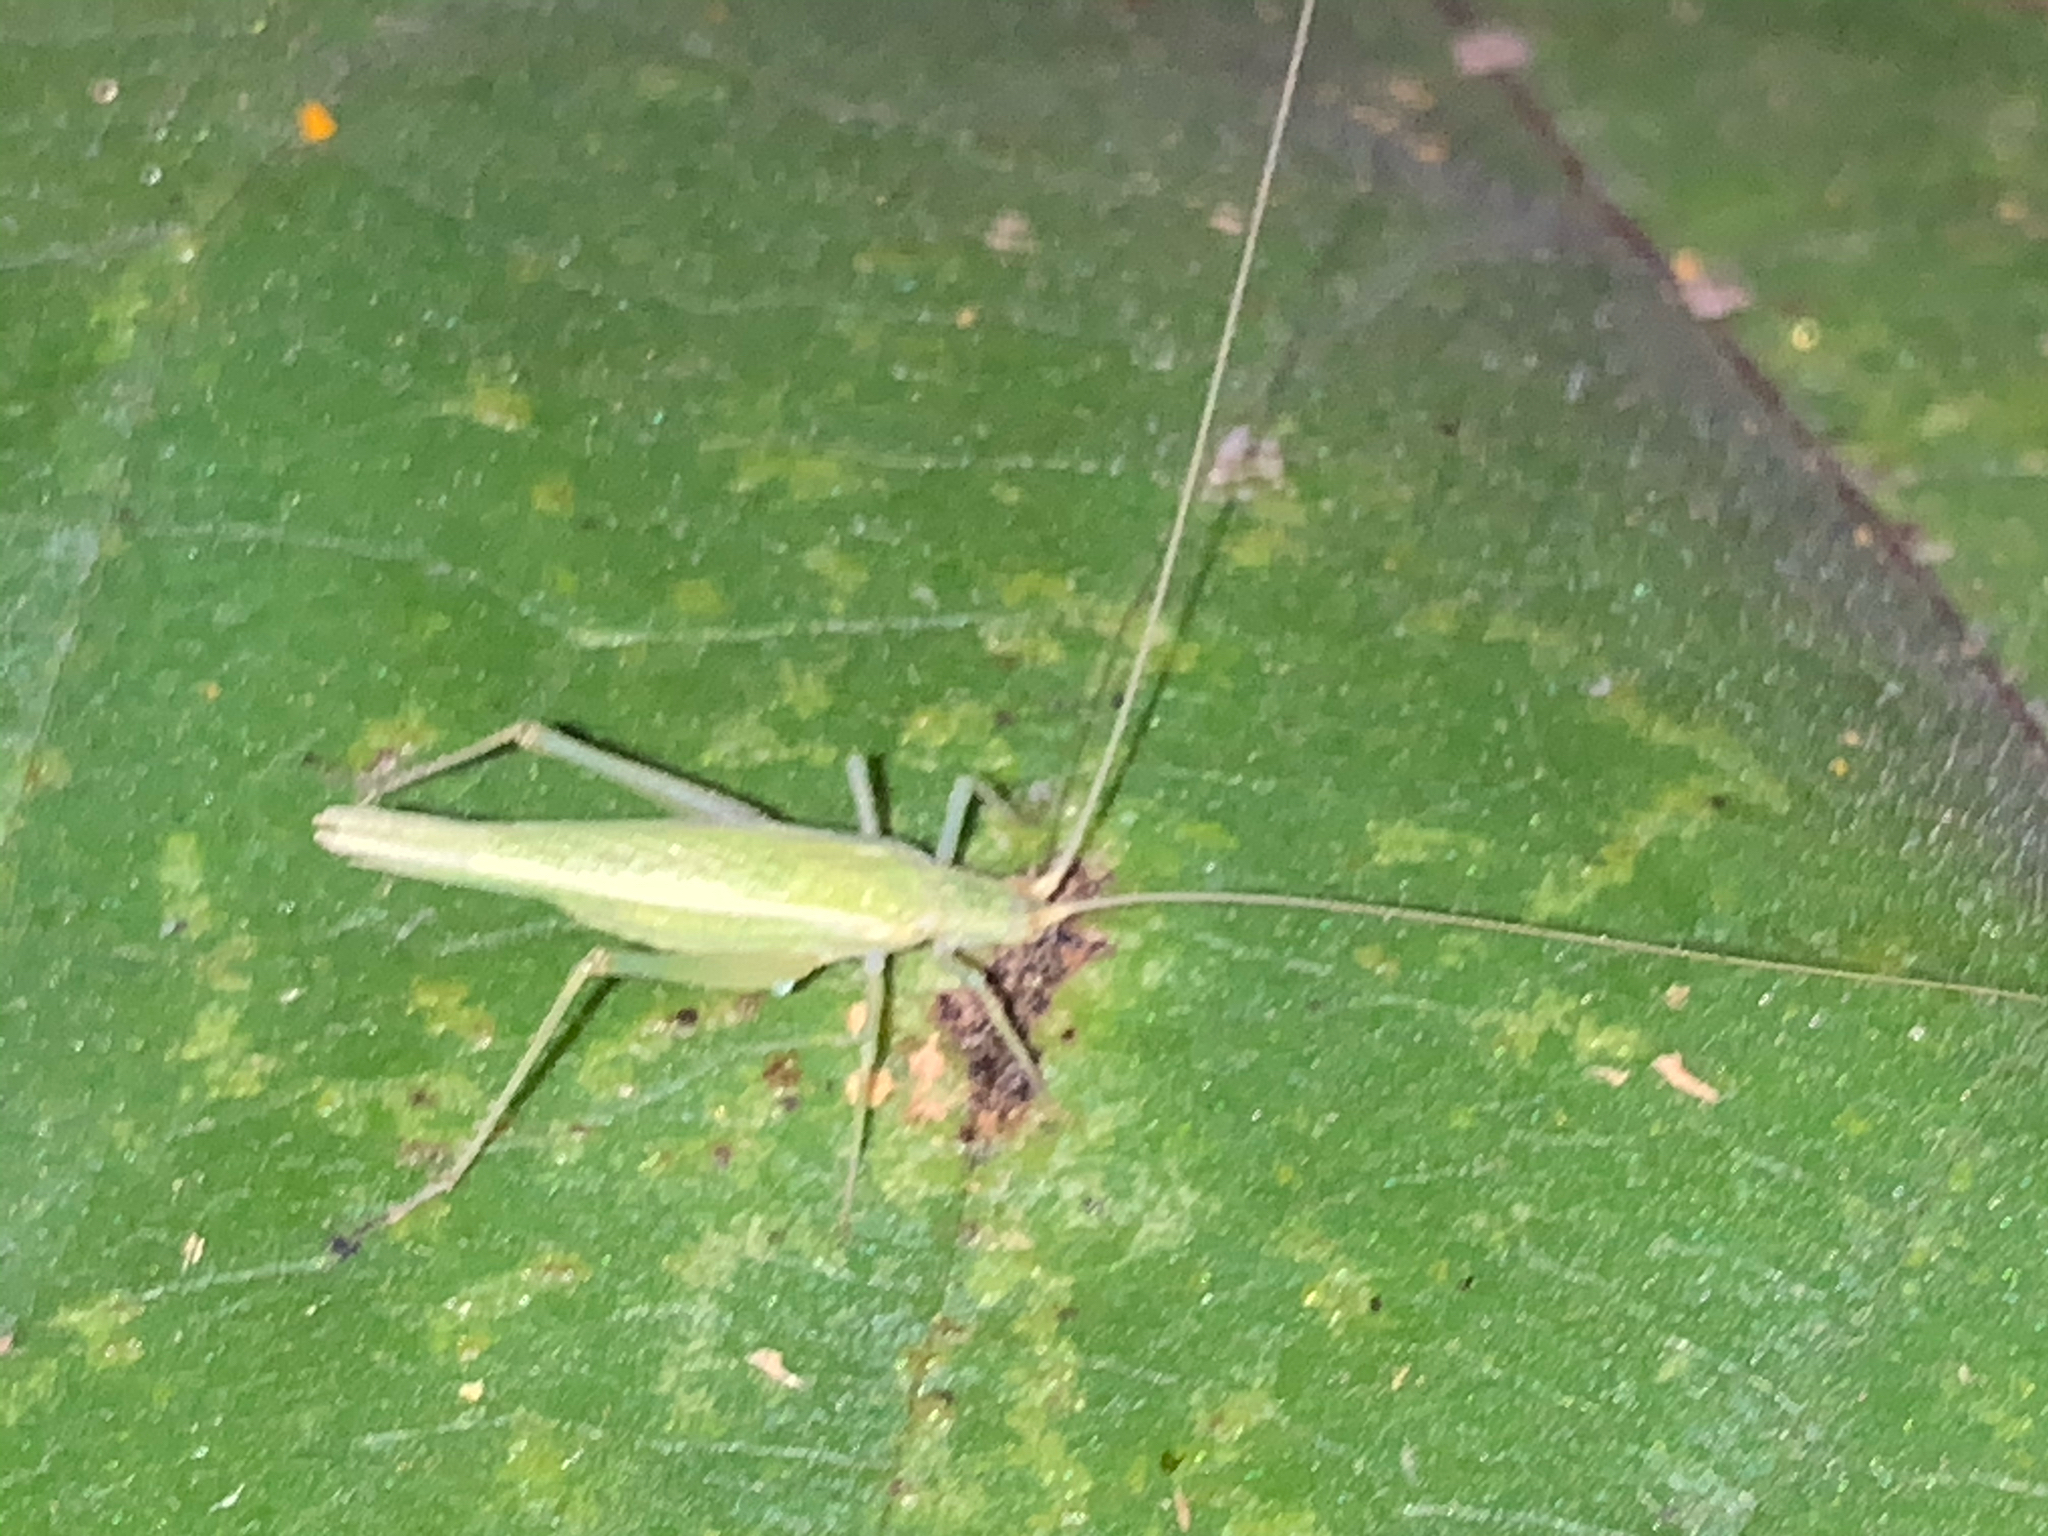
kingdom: Animalia
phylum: Arthropoda
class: Insecta
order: Orthoptera
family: Gryllidae
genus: Oecanthus
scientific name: Oecanthus
